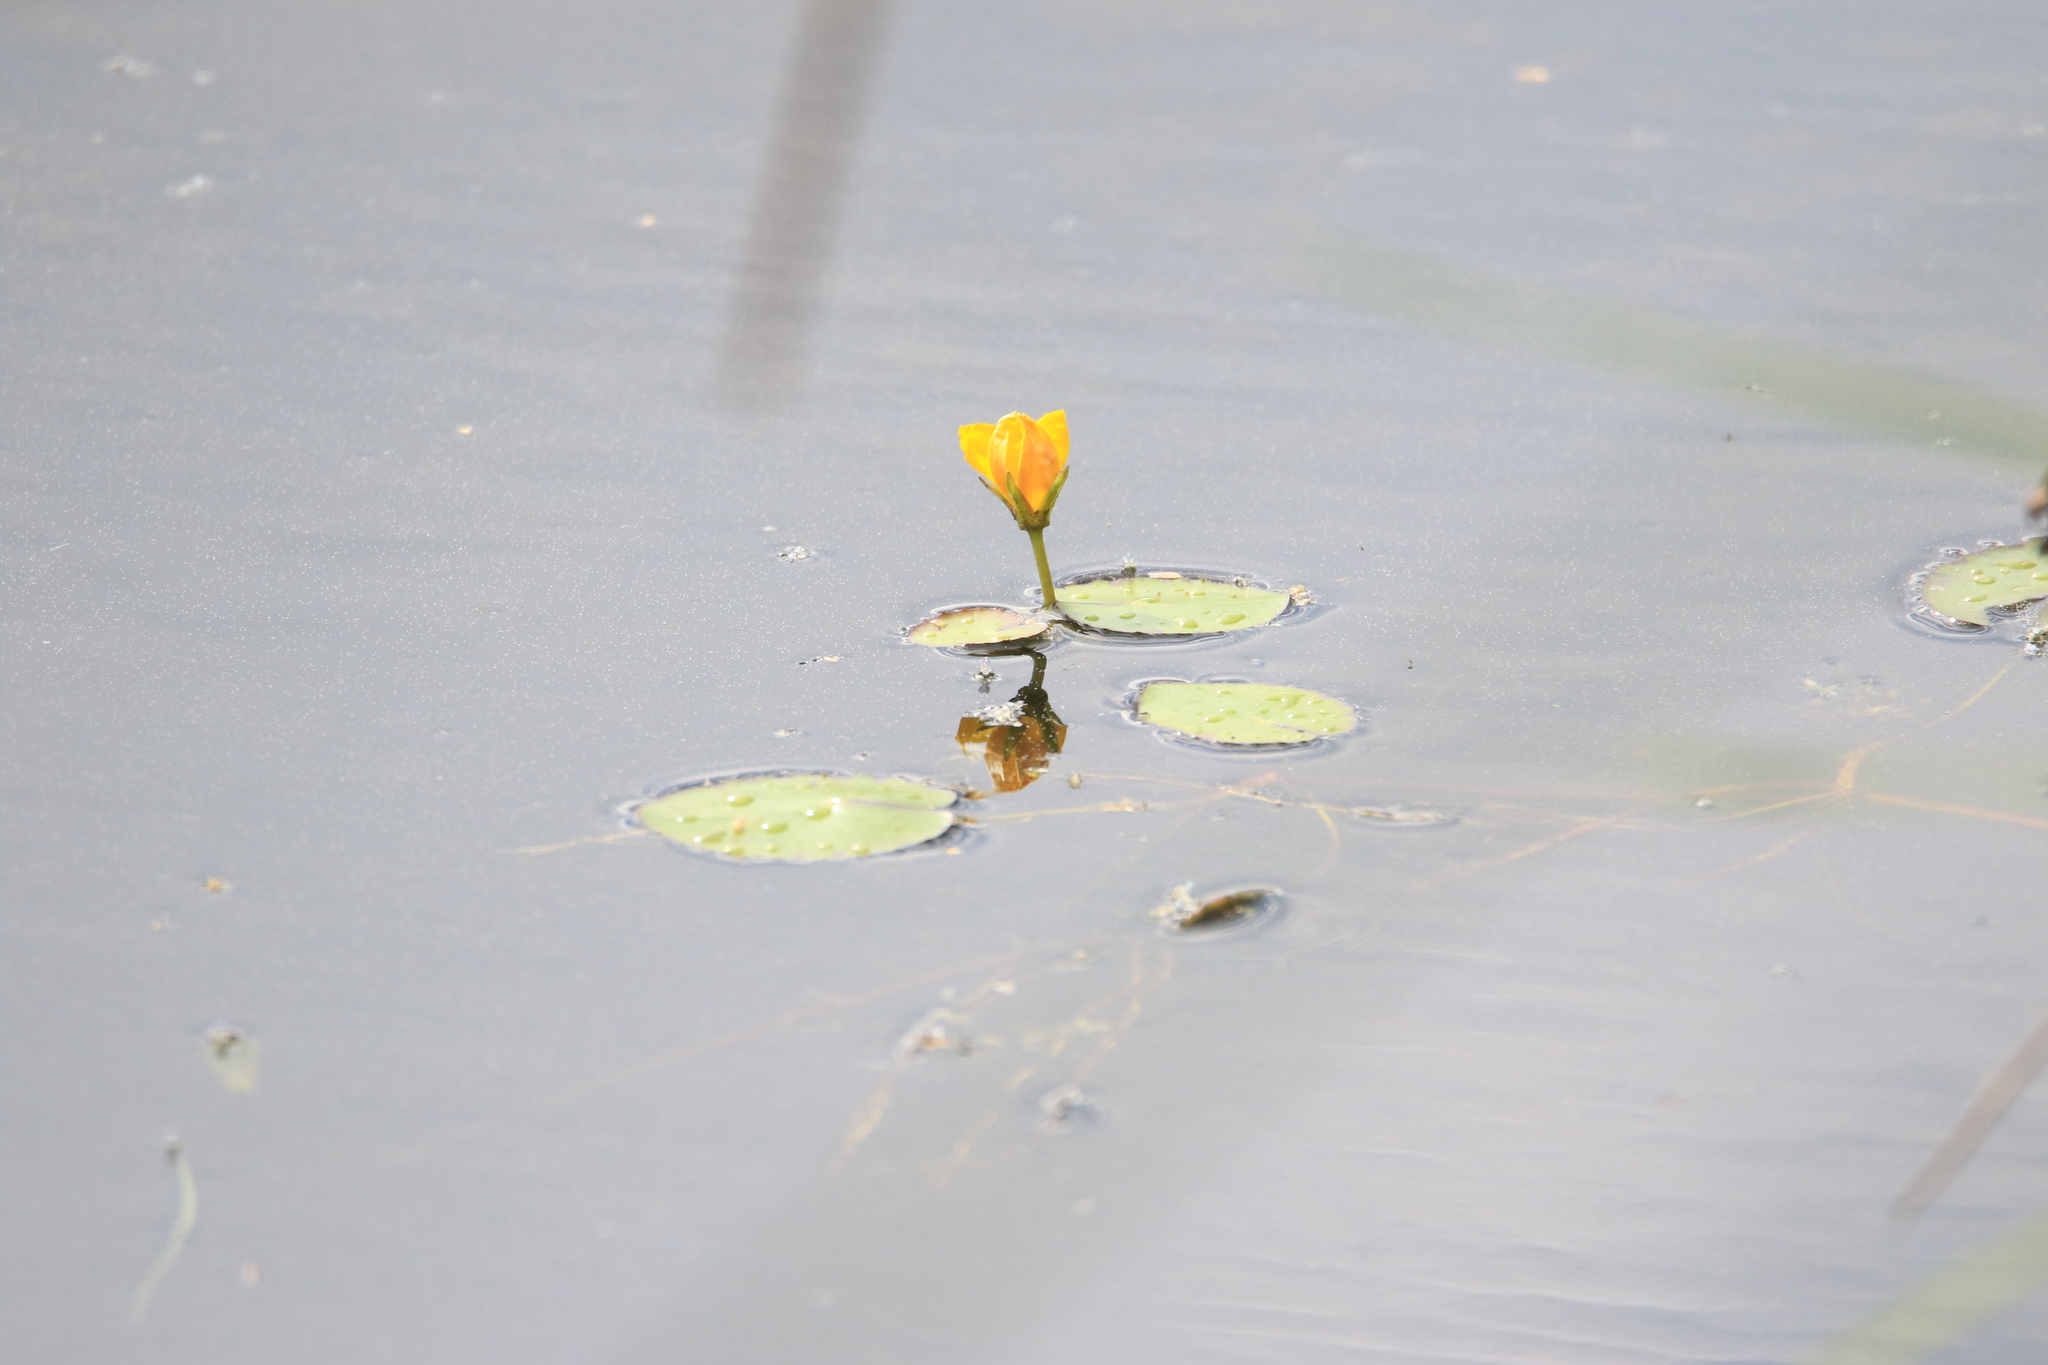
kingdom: Plantae
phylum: Tracheophyta
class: Magnoliopsida
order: Asterales
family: Menyanthaceae
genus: Nymphoides
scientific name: Nymphoides peltata
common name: Fringed water-lily
